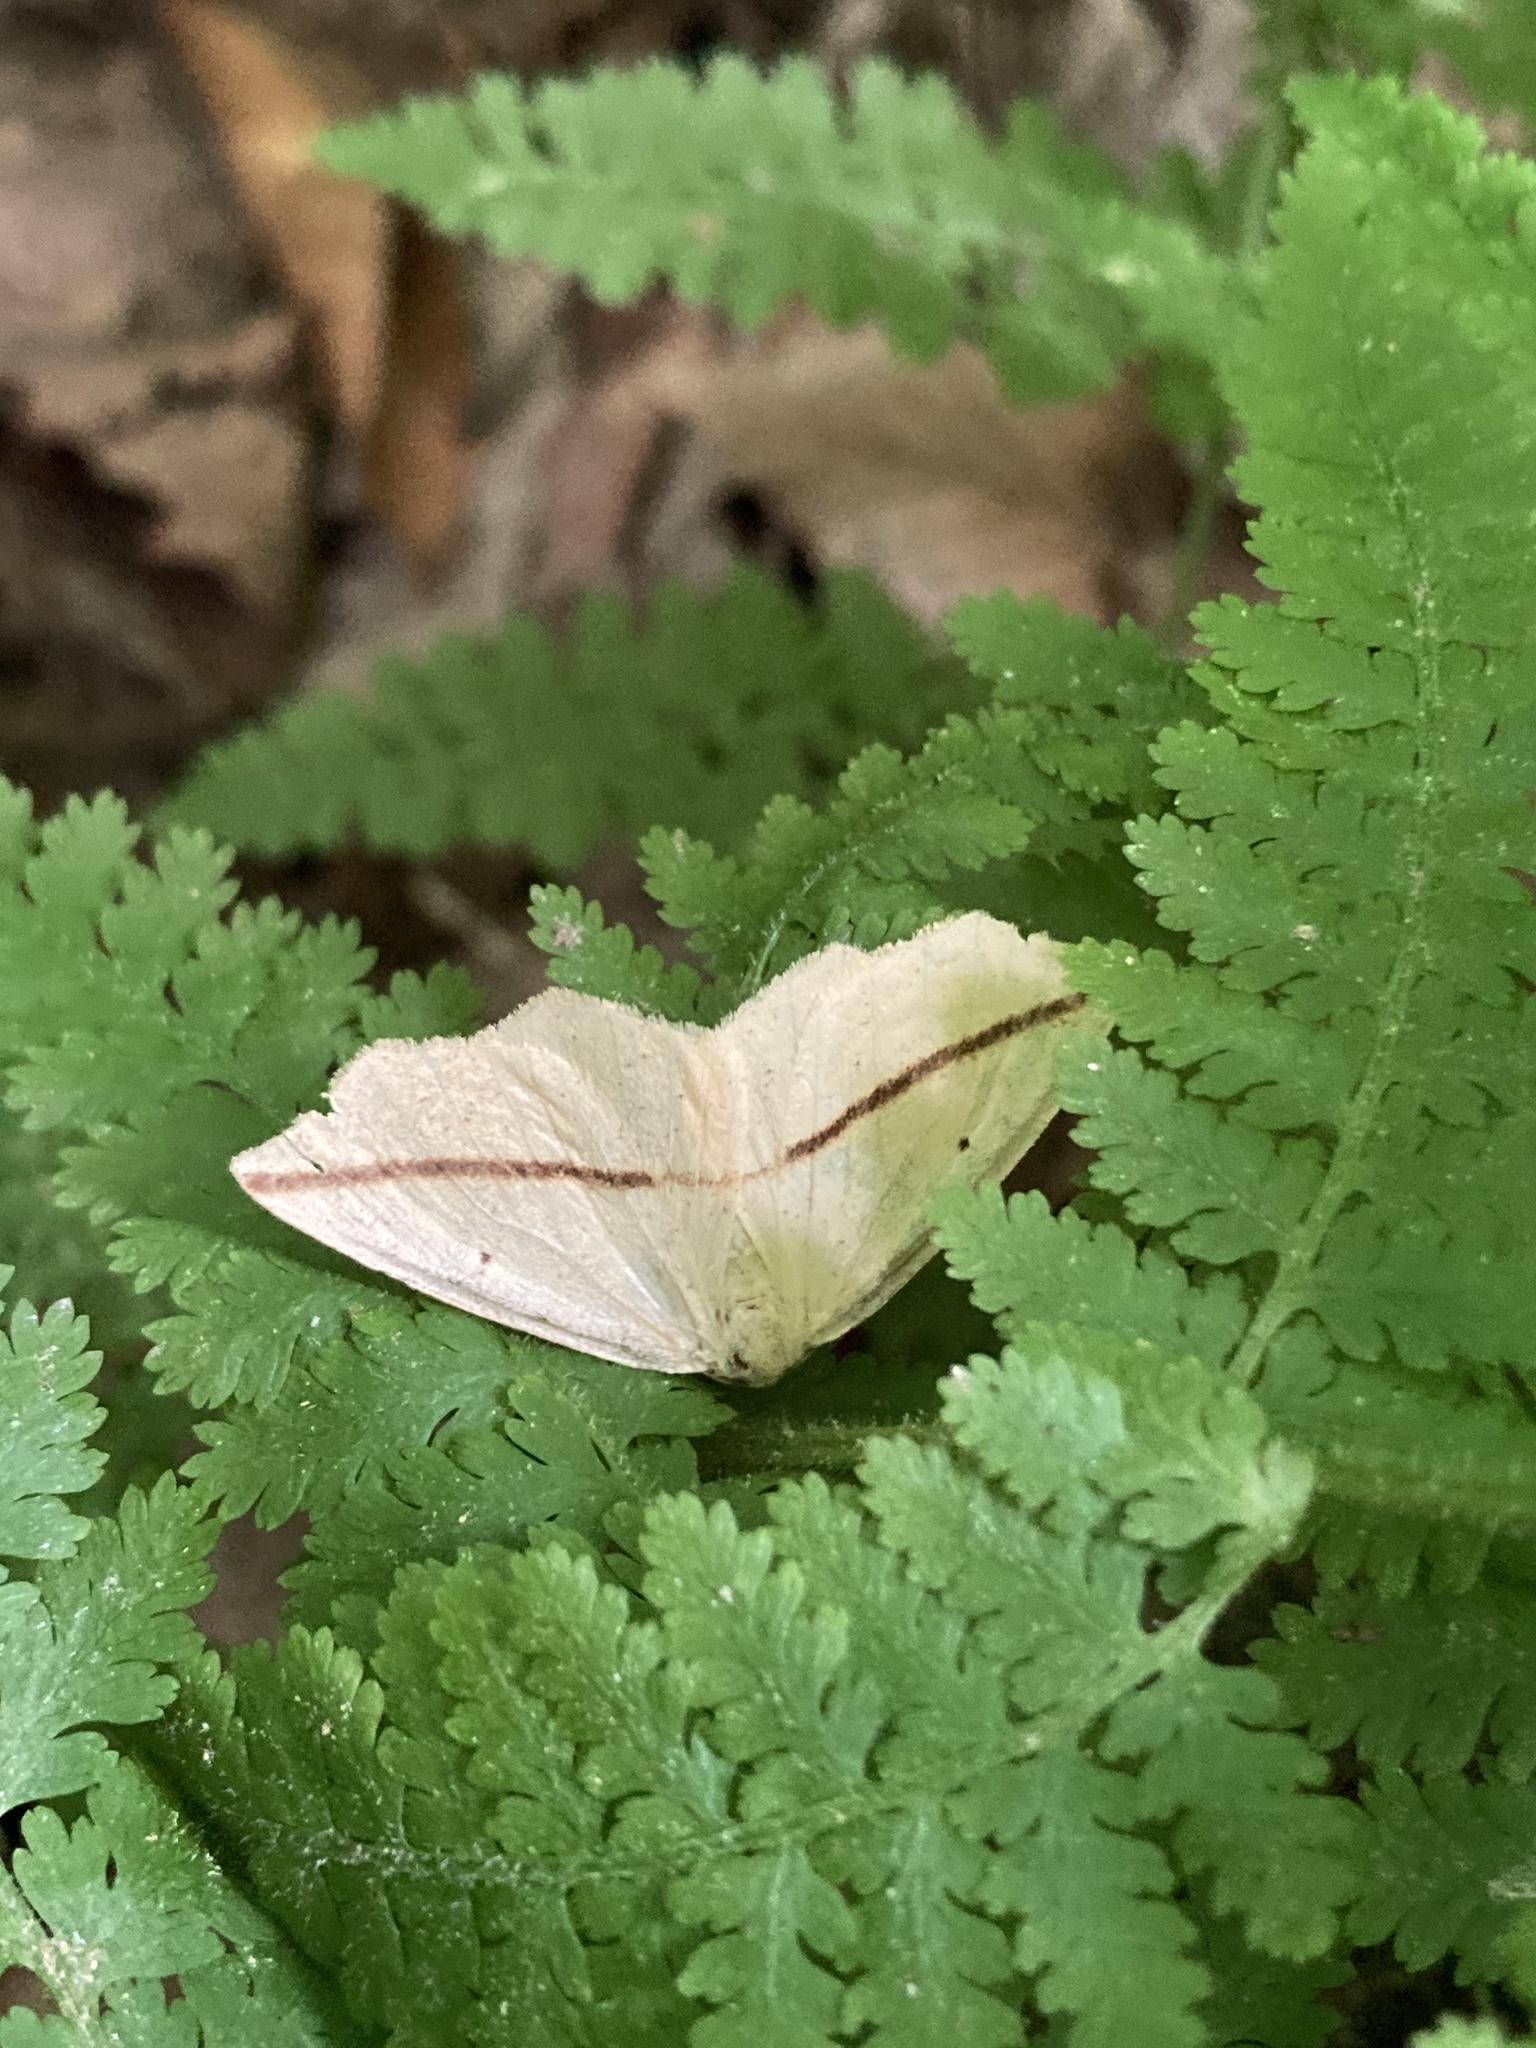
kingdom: Animalia
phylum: Arthropoda
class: Insecta
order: Lepidoptera
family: Geometridae
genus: Tetracis
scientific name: Tetracis crocallata
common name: Yellow slant-line
